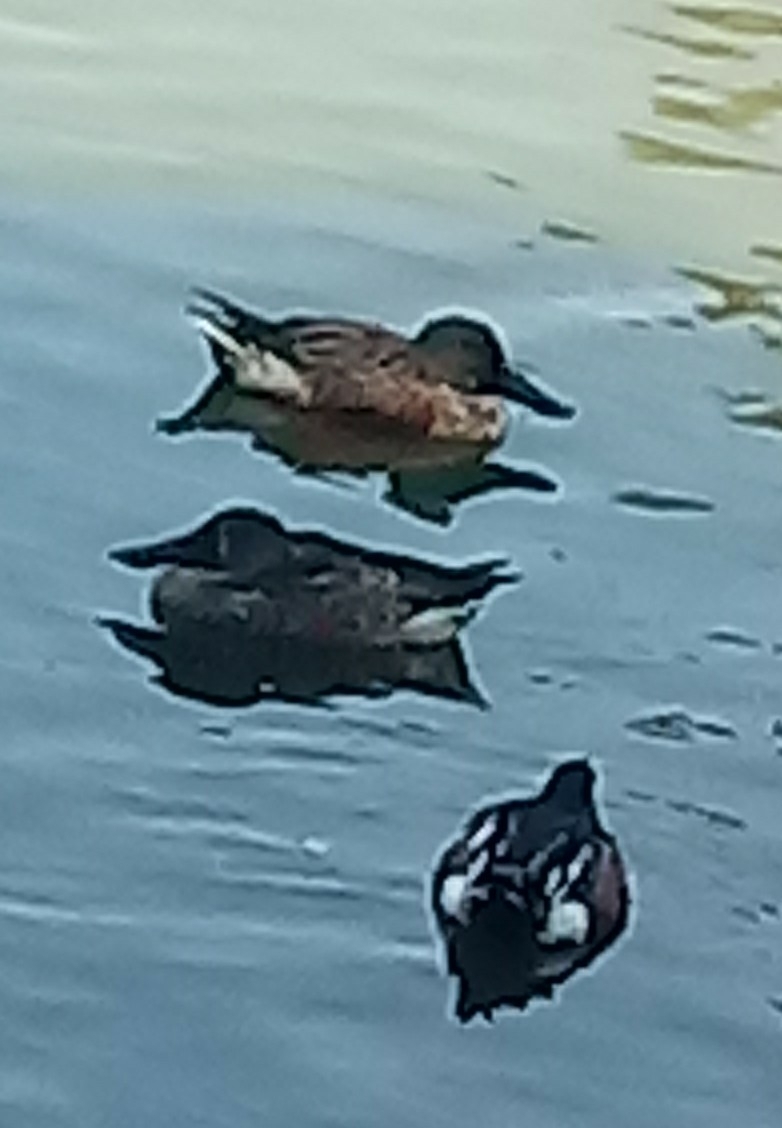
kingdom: Animalia
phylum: Chordata
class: Aves
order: Anseriformes
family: Anatidae
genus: Spatula
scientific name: Spatula clypeata
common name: Northern shoveler
